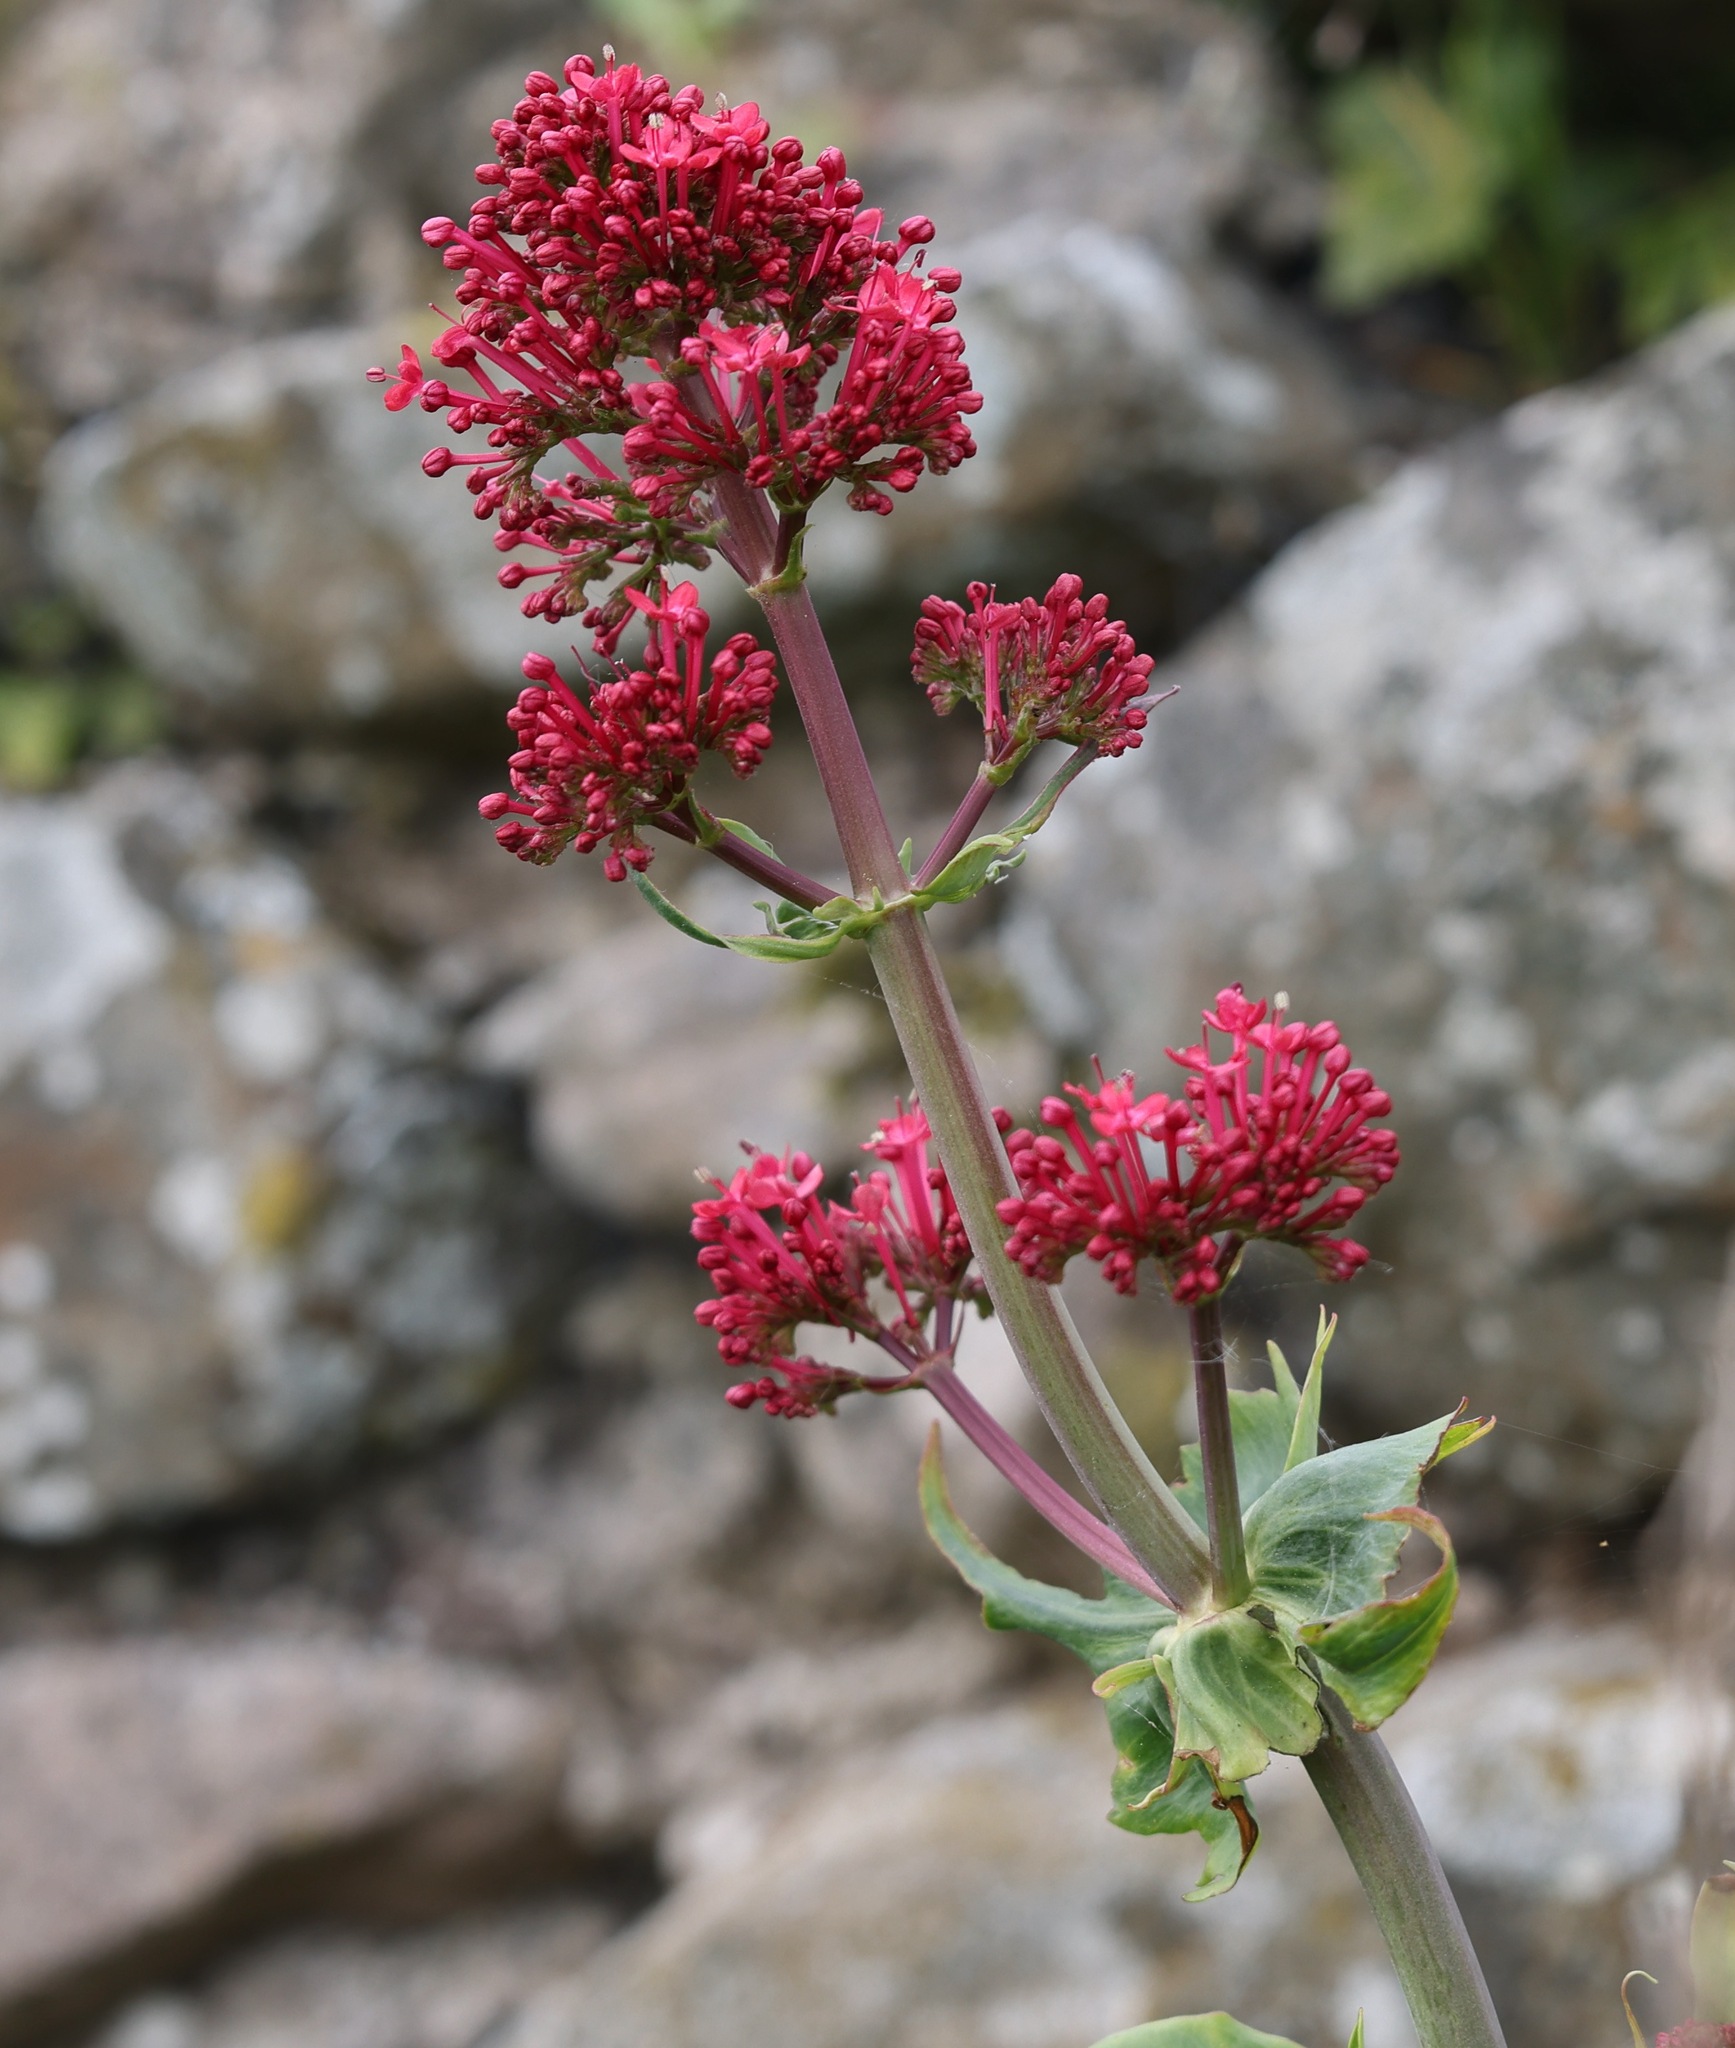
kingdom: Plantae
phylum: Tracheophyta
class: Magnoliopsida
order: Dipsacales
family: Caprifoliaceae
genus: Centranthus
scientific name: Centranthus ruber
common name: Red valerian
